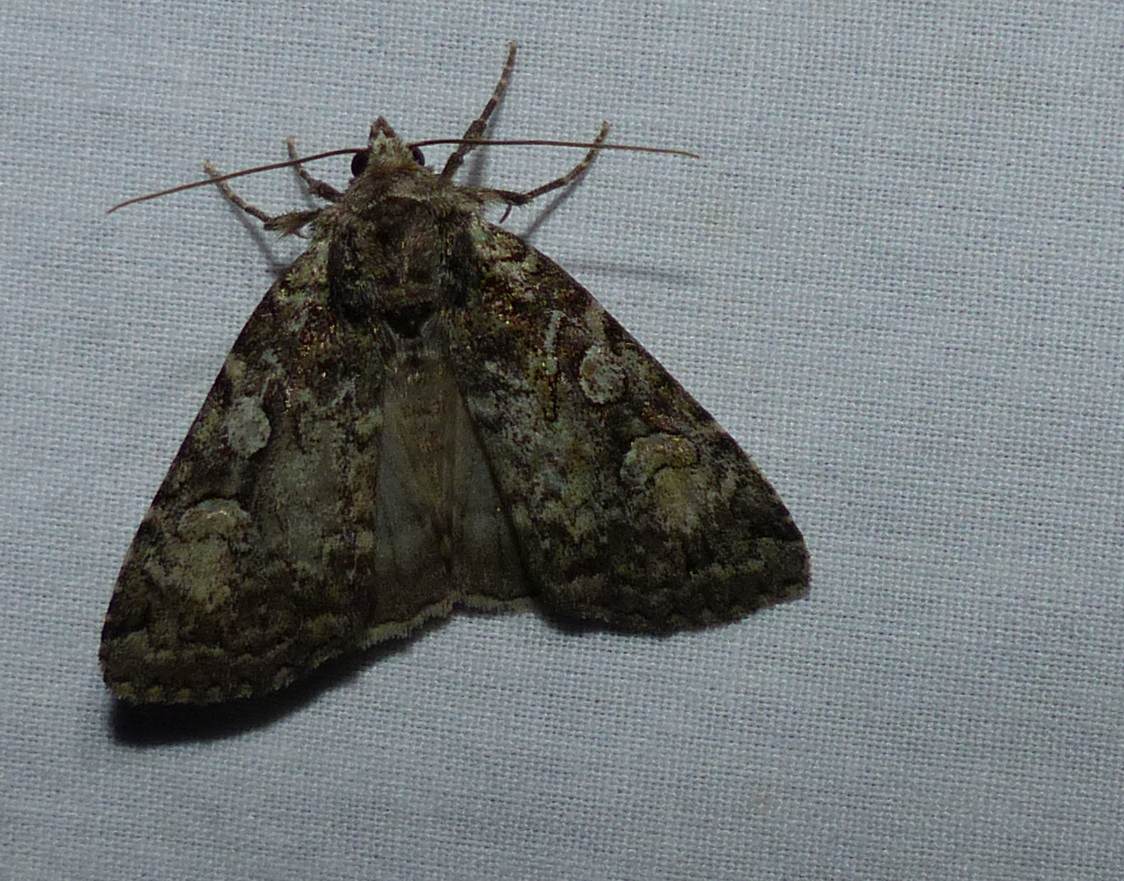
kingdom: Animalia
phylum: Arthropoda
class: Insecta
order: Lepidoptera
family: Noctuidae
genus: Anaplectoides
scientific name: Anaplectoides pressus
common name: Dappled dart
